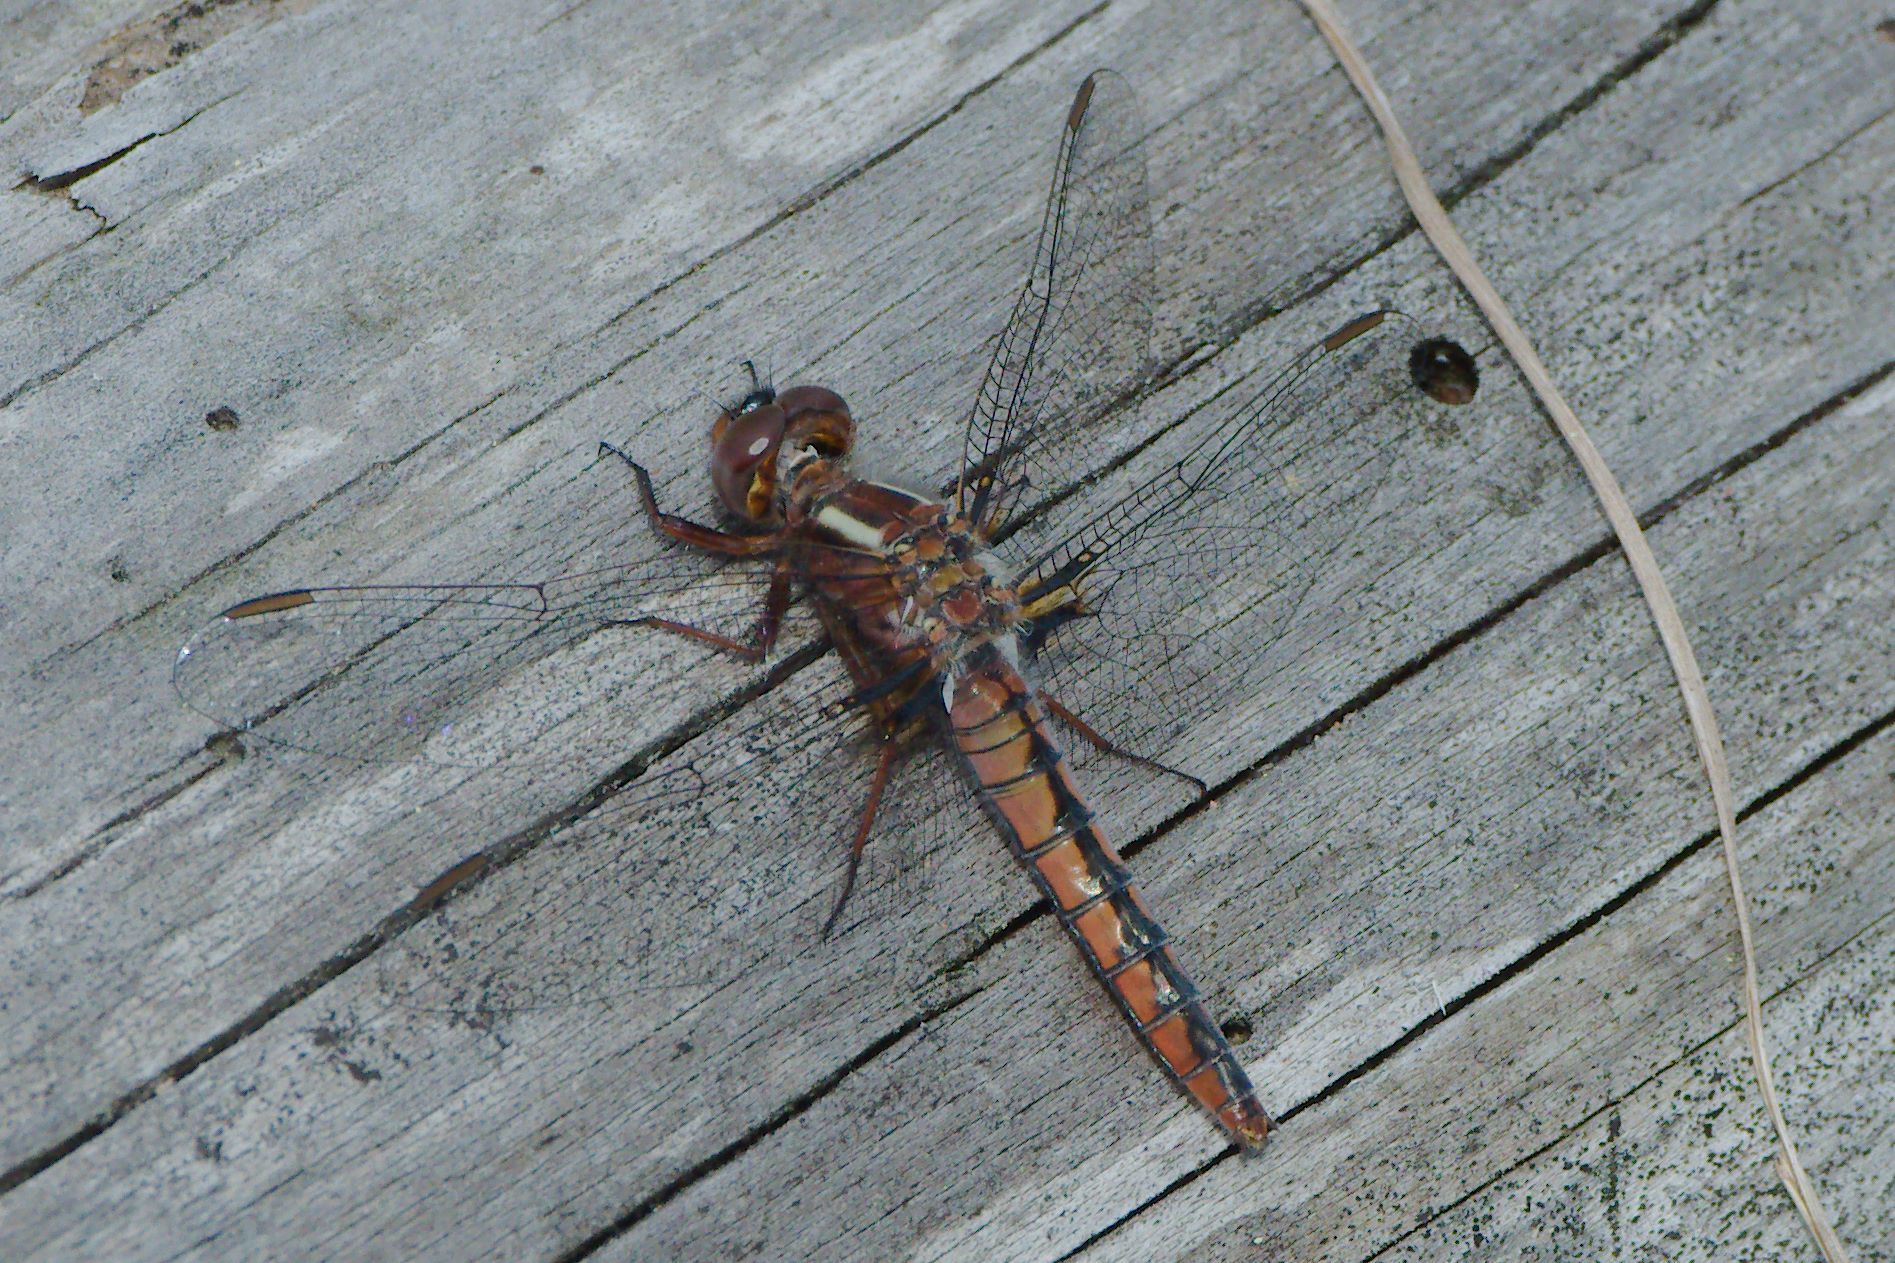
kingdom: Animalia
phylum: Arthropoda
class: Insecta
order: Odonata
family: Libellulidae
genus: Ladona
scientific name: Ladona deplanata
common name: Blue corporal
